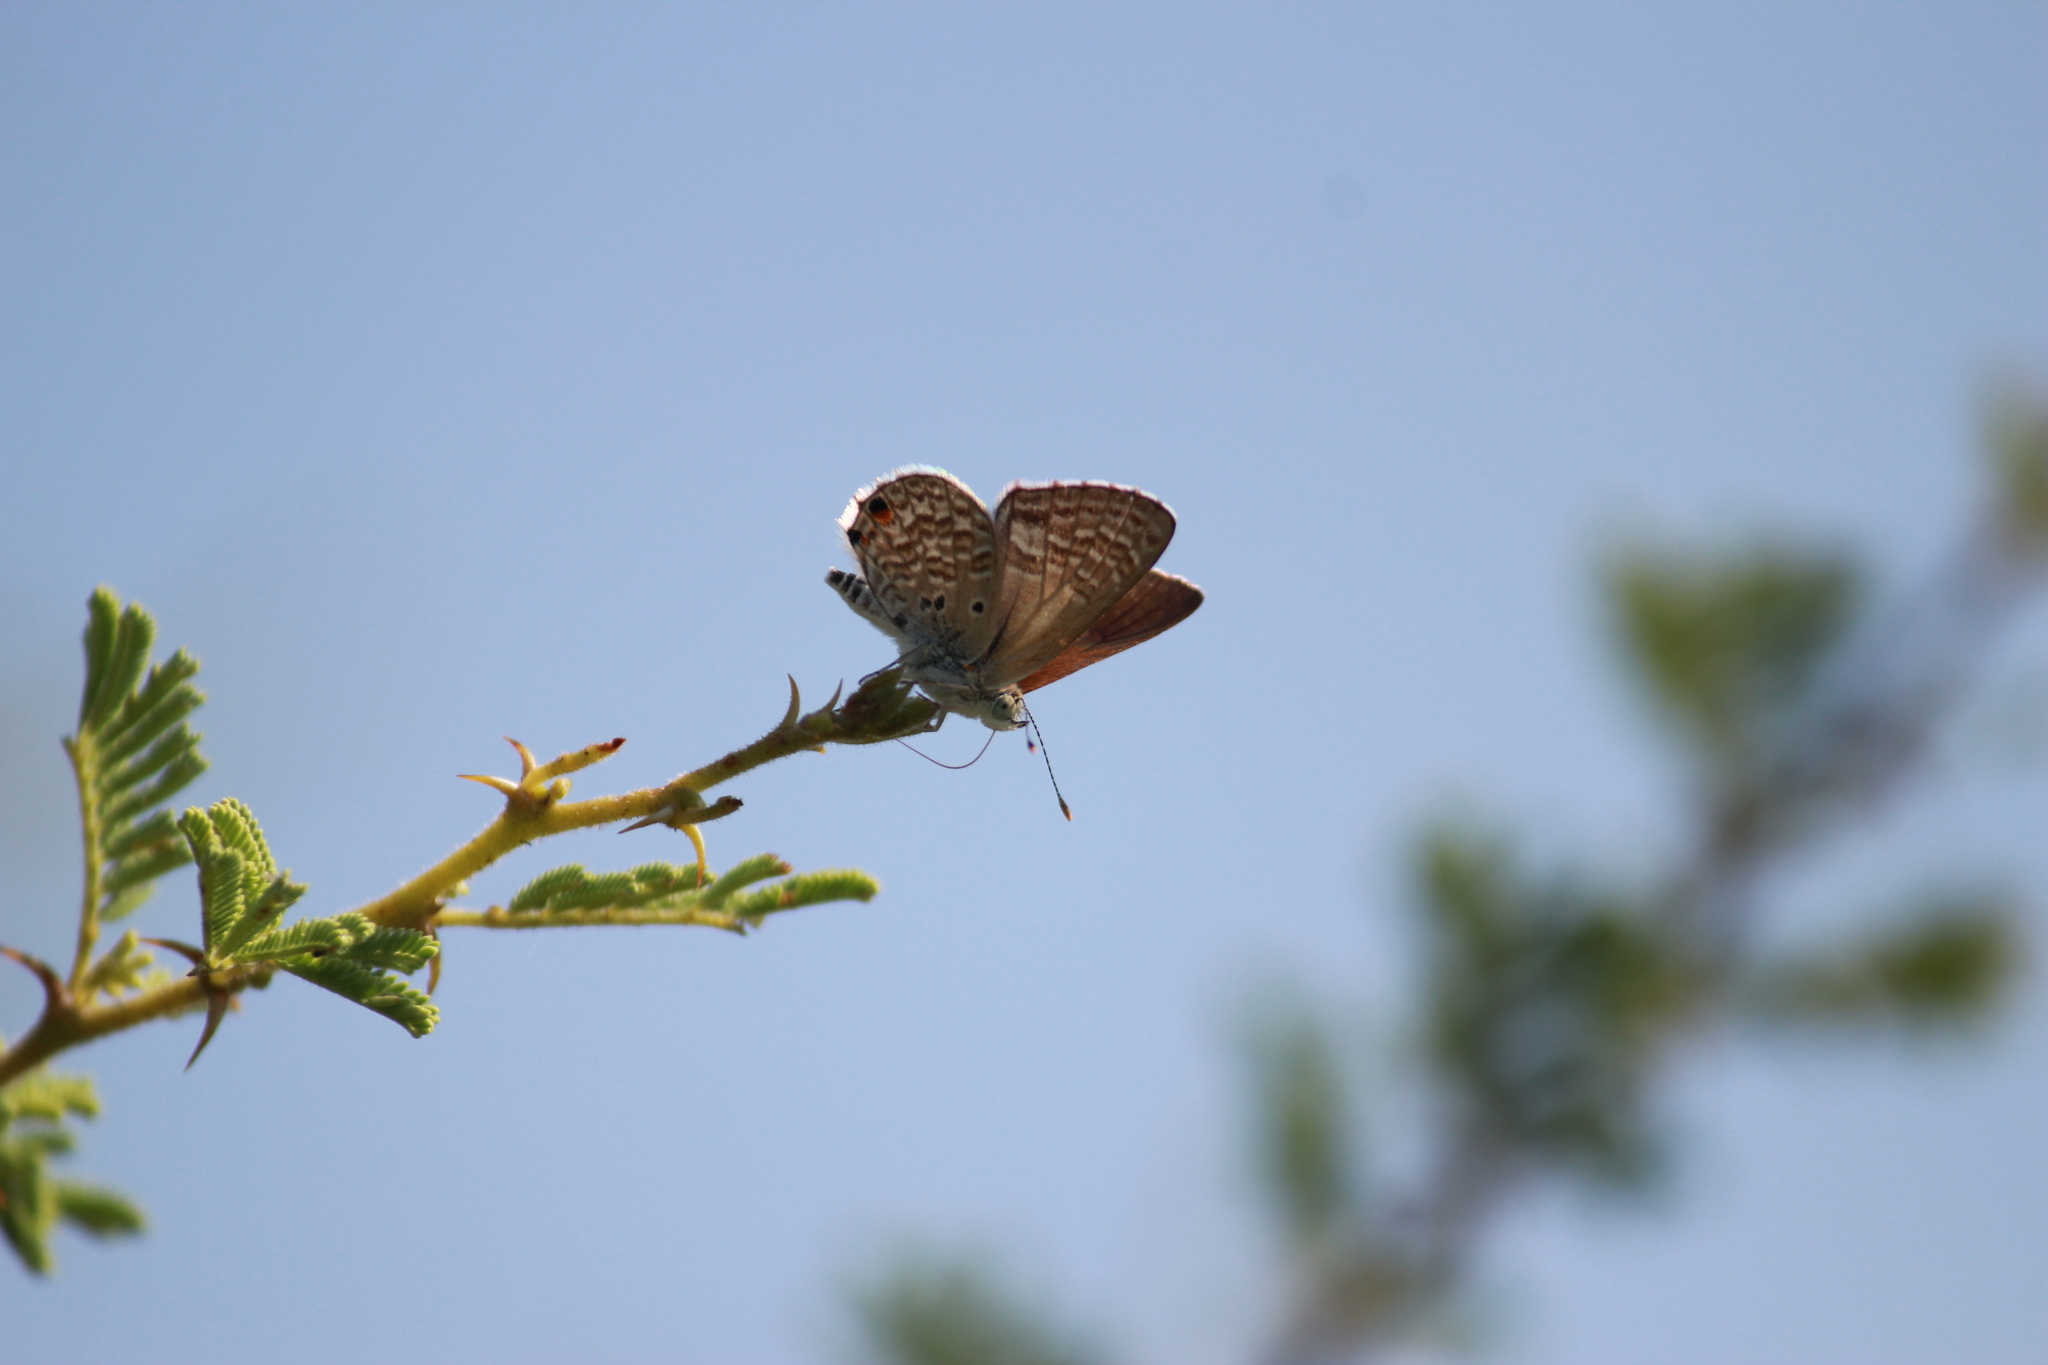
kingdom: Animalia
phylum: Arthropoda
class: Insecta
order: Lepidoptera
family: Lycaenidae
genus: Anthene
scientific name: Anthene dulcis
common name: Mashuna hairtail
